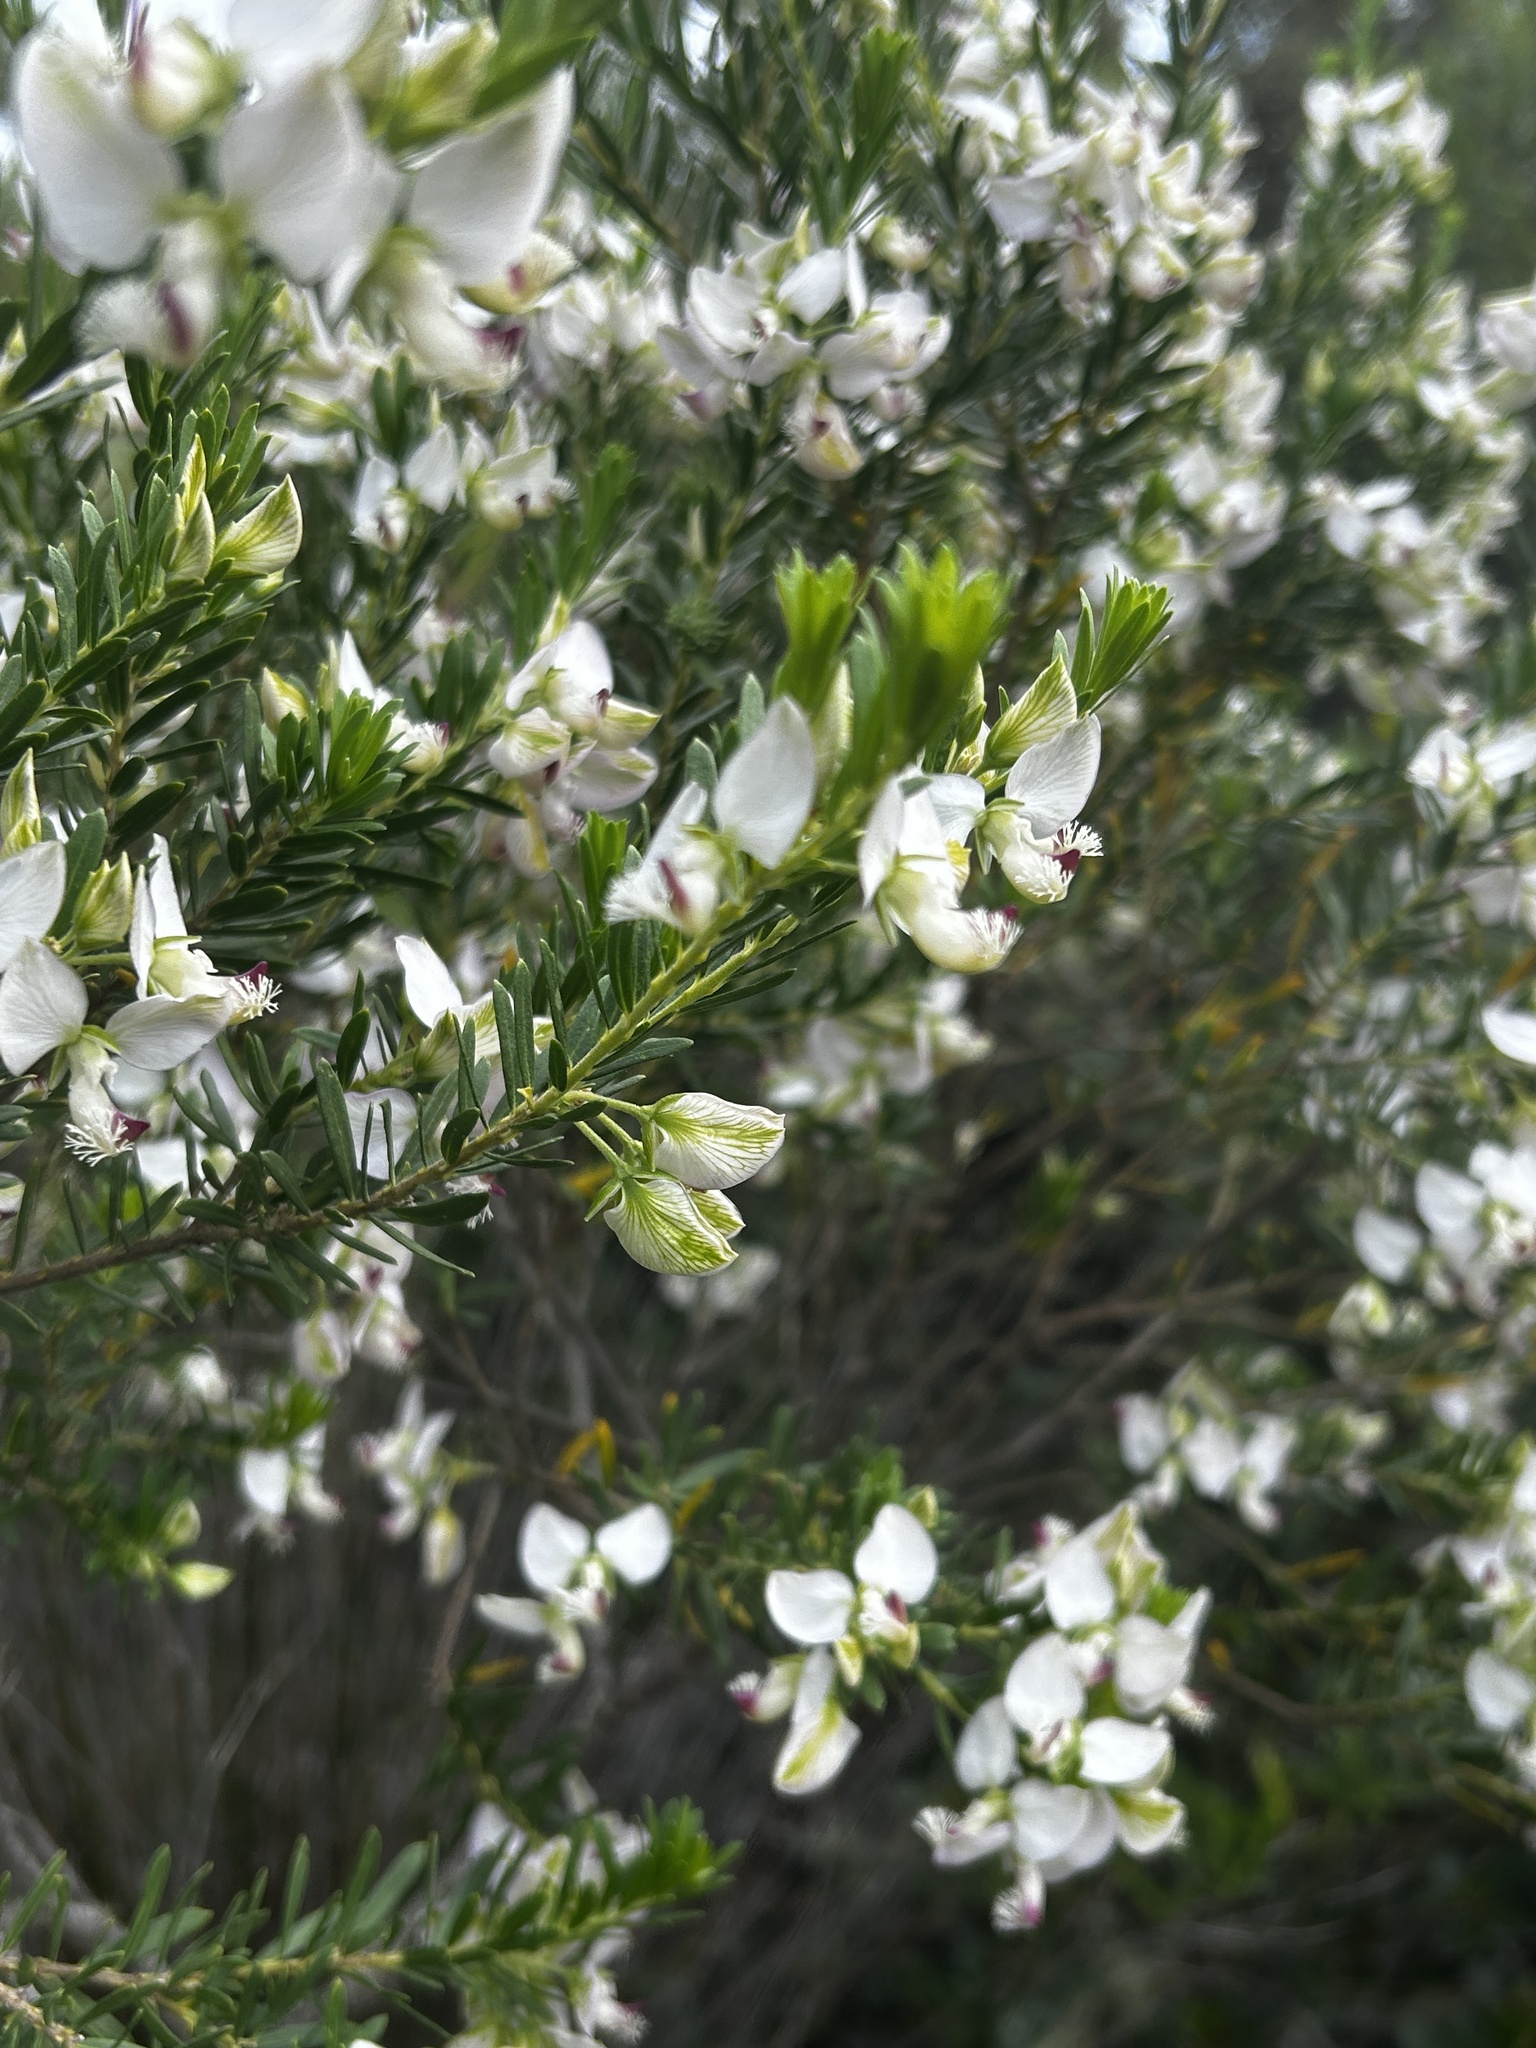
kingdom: Plantae
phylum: Tracheophyta
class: Magnoliopsida
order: Fabales
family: Polygalaceae
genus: Polygala
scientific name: Polygala myrtifolia
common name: Myrtle-leaf milkwort
